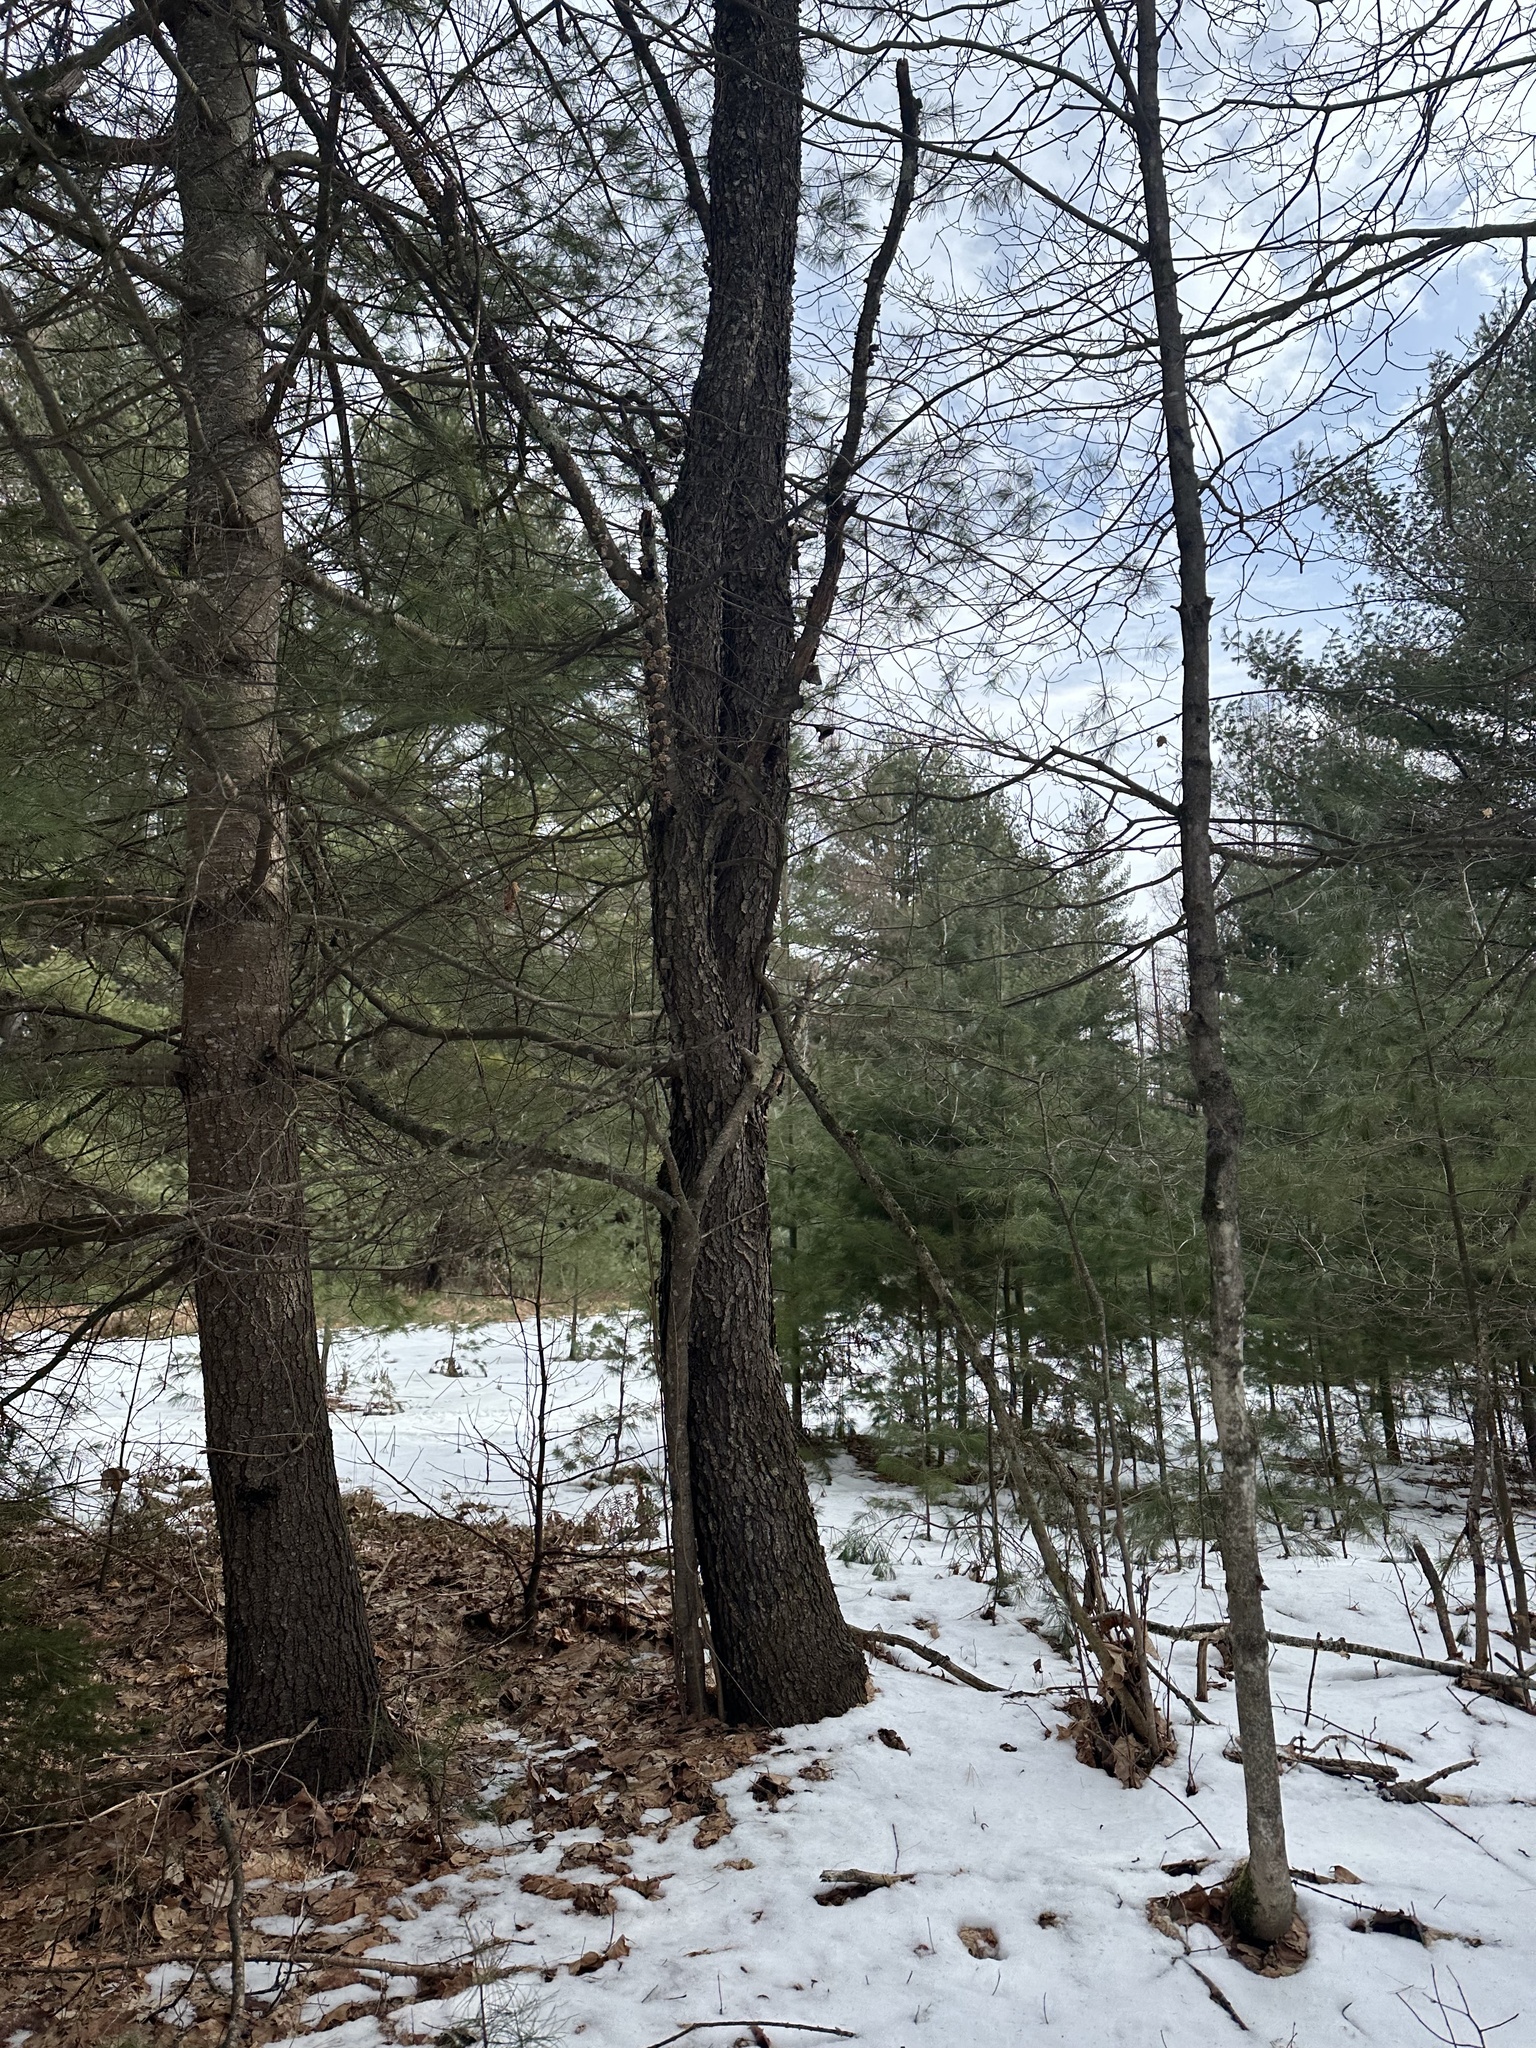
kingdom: Plantae
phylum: Tracheophyta
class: Magnoliopsida
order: Rosales
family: Rosaceae
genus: Prunus
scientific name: Prunus serotina
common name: Black cherry
